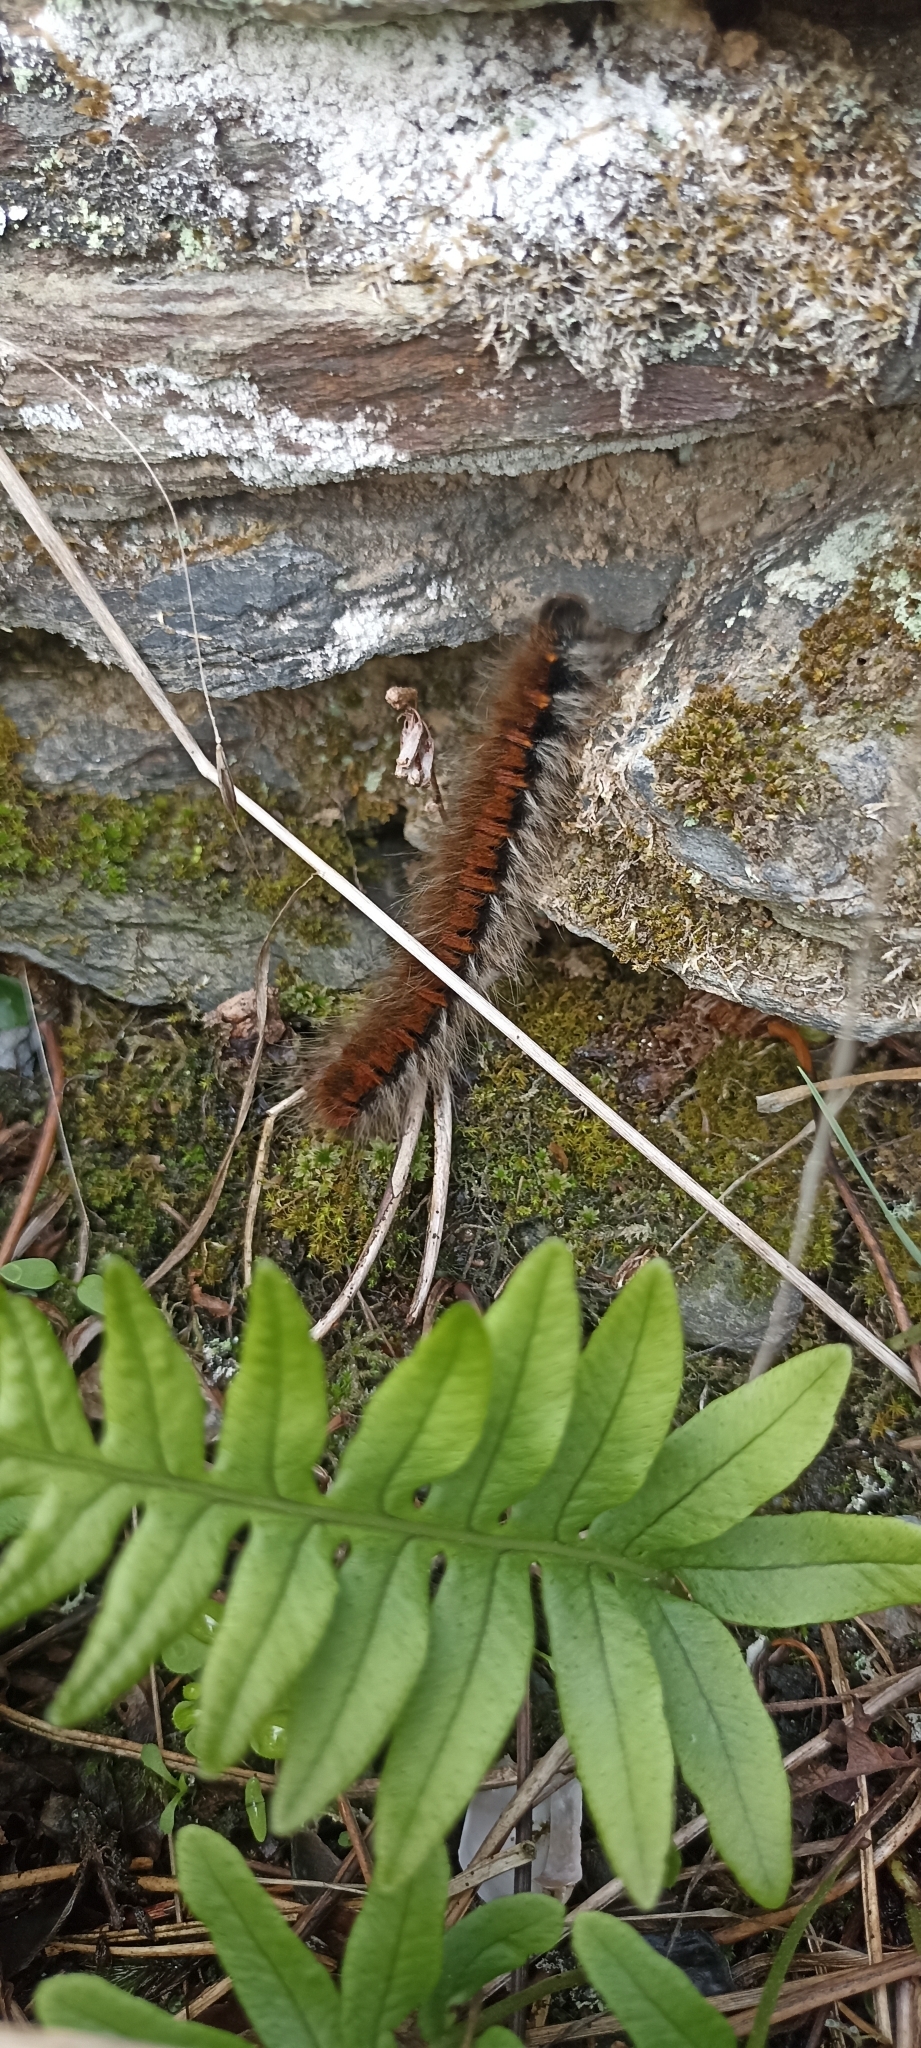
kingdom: Animalia
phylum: Arthropoda
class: Insecta
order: Lepidoptera
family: Lasiocampidae
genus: Macrothylacia
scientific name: Macrothylacia rubi
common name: Fox moth
